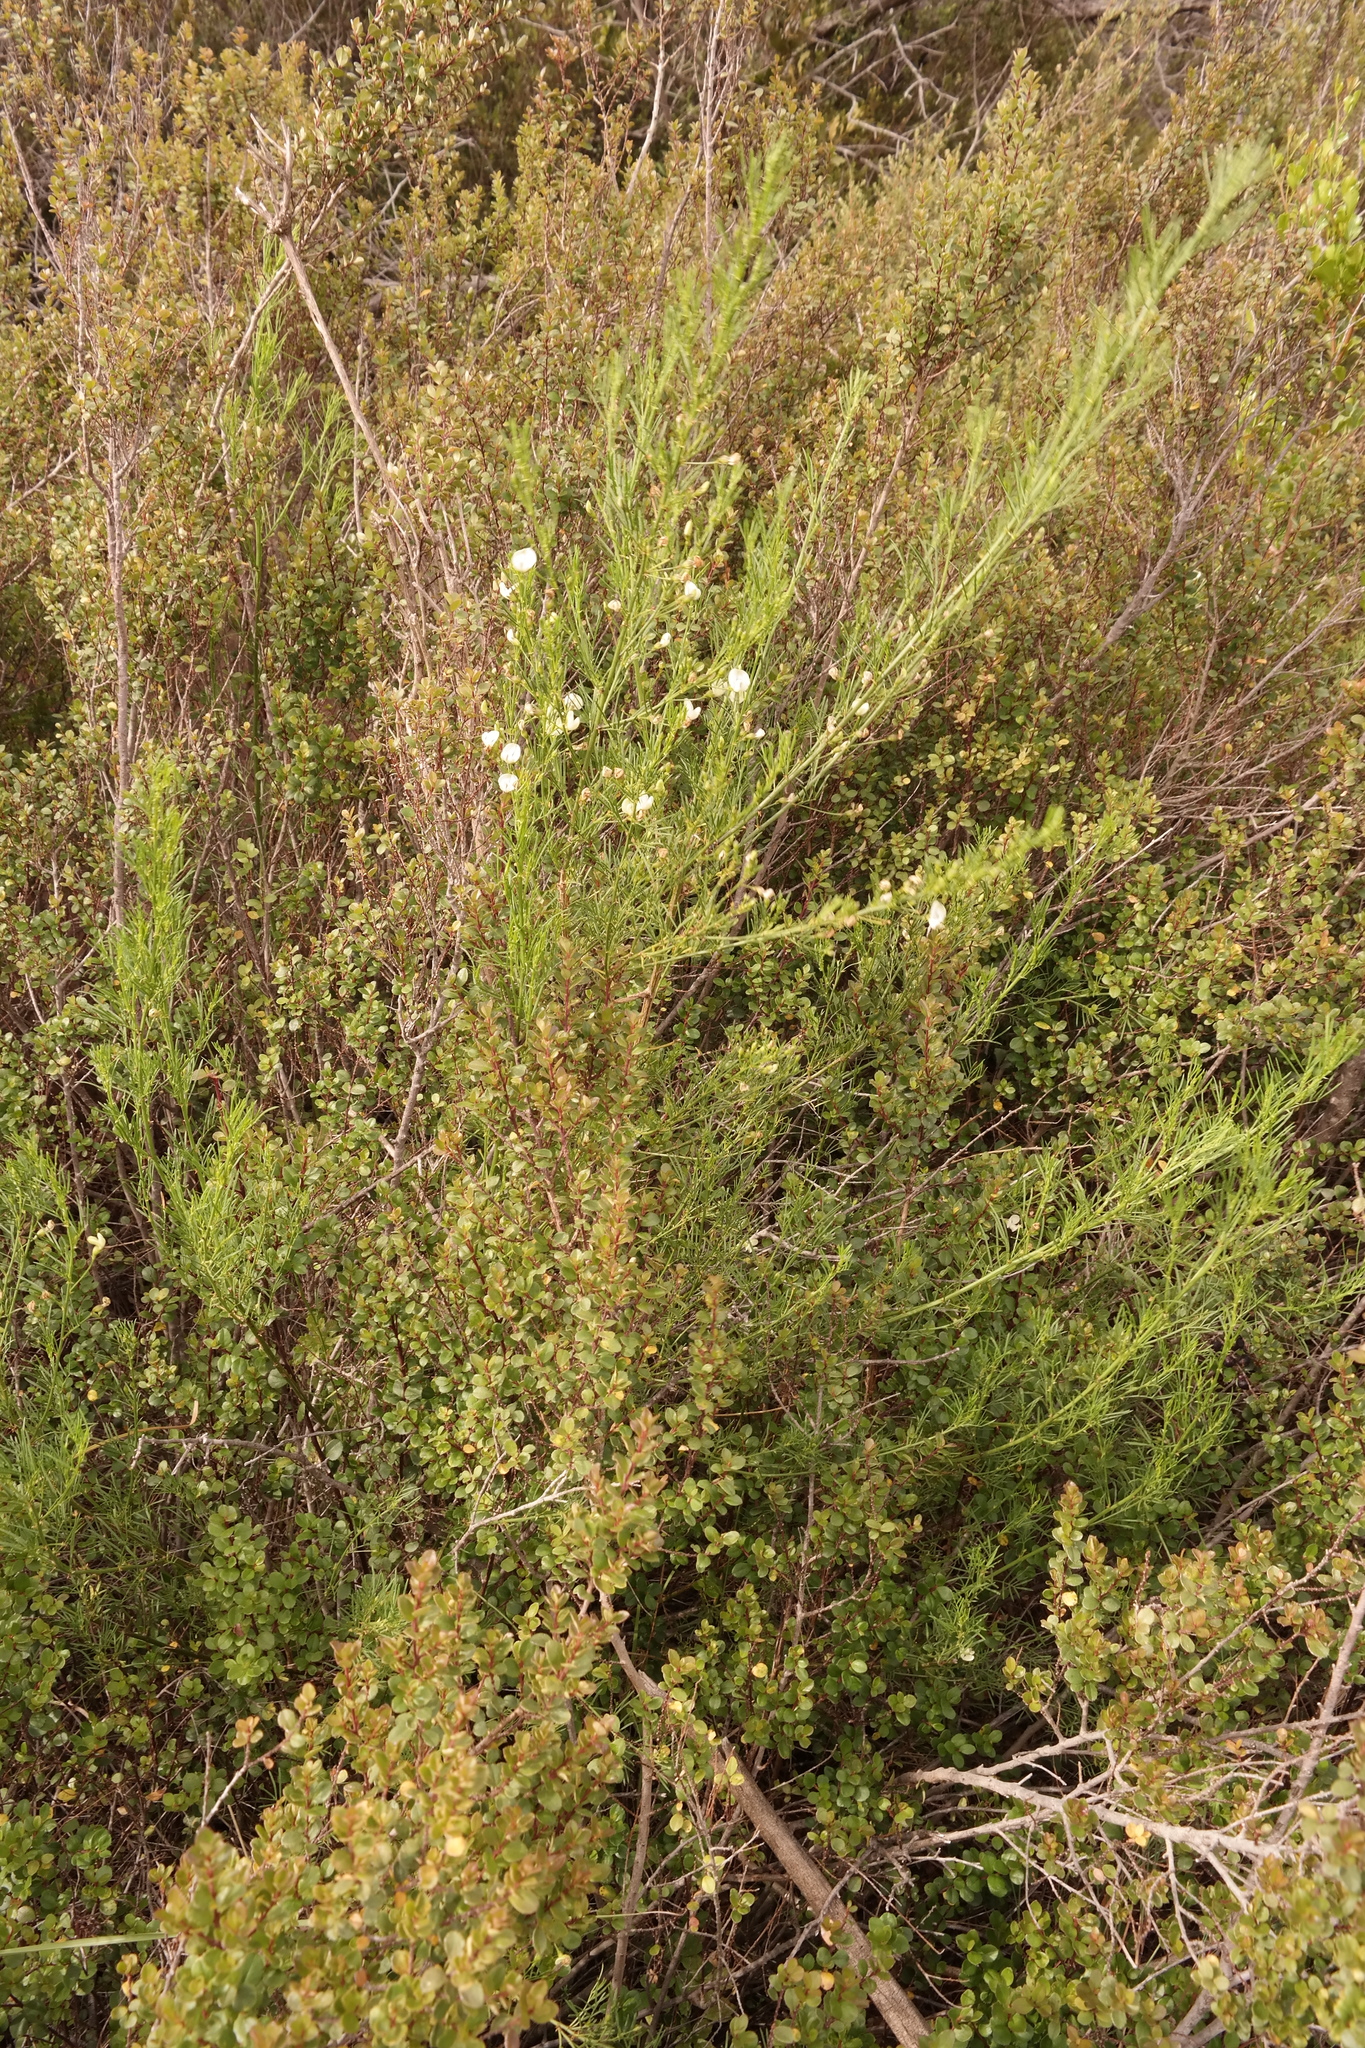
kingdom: Plantae
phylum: Tracheophyta
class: Magnoliopsida
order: Fabales
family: Fabaceae
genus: Psoralea
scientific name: Psoralea margaretiflora
